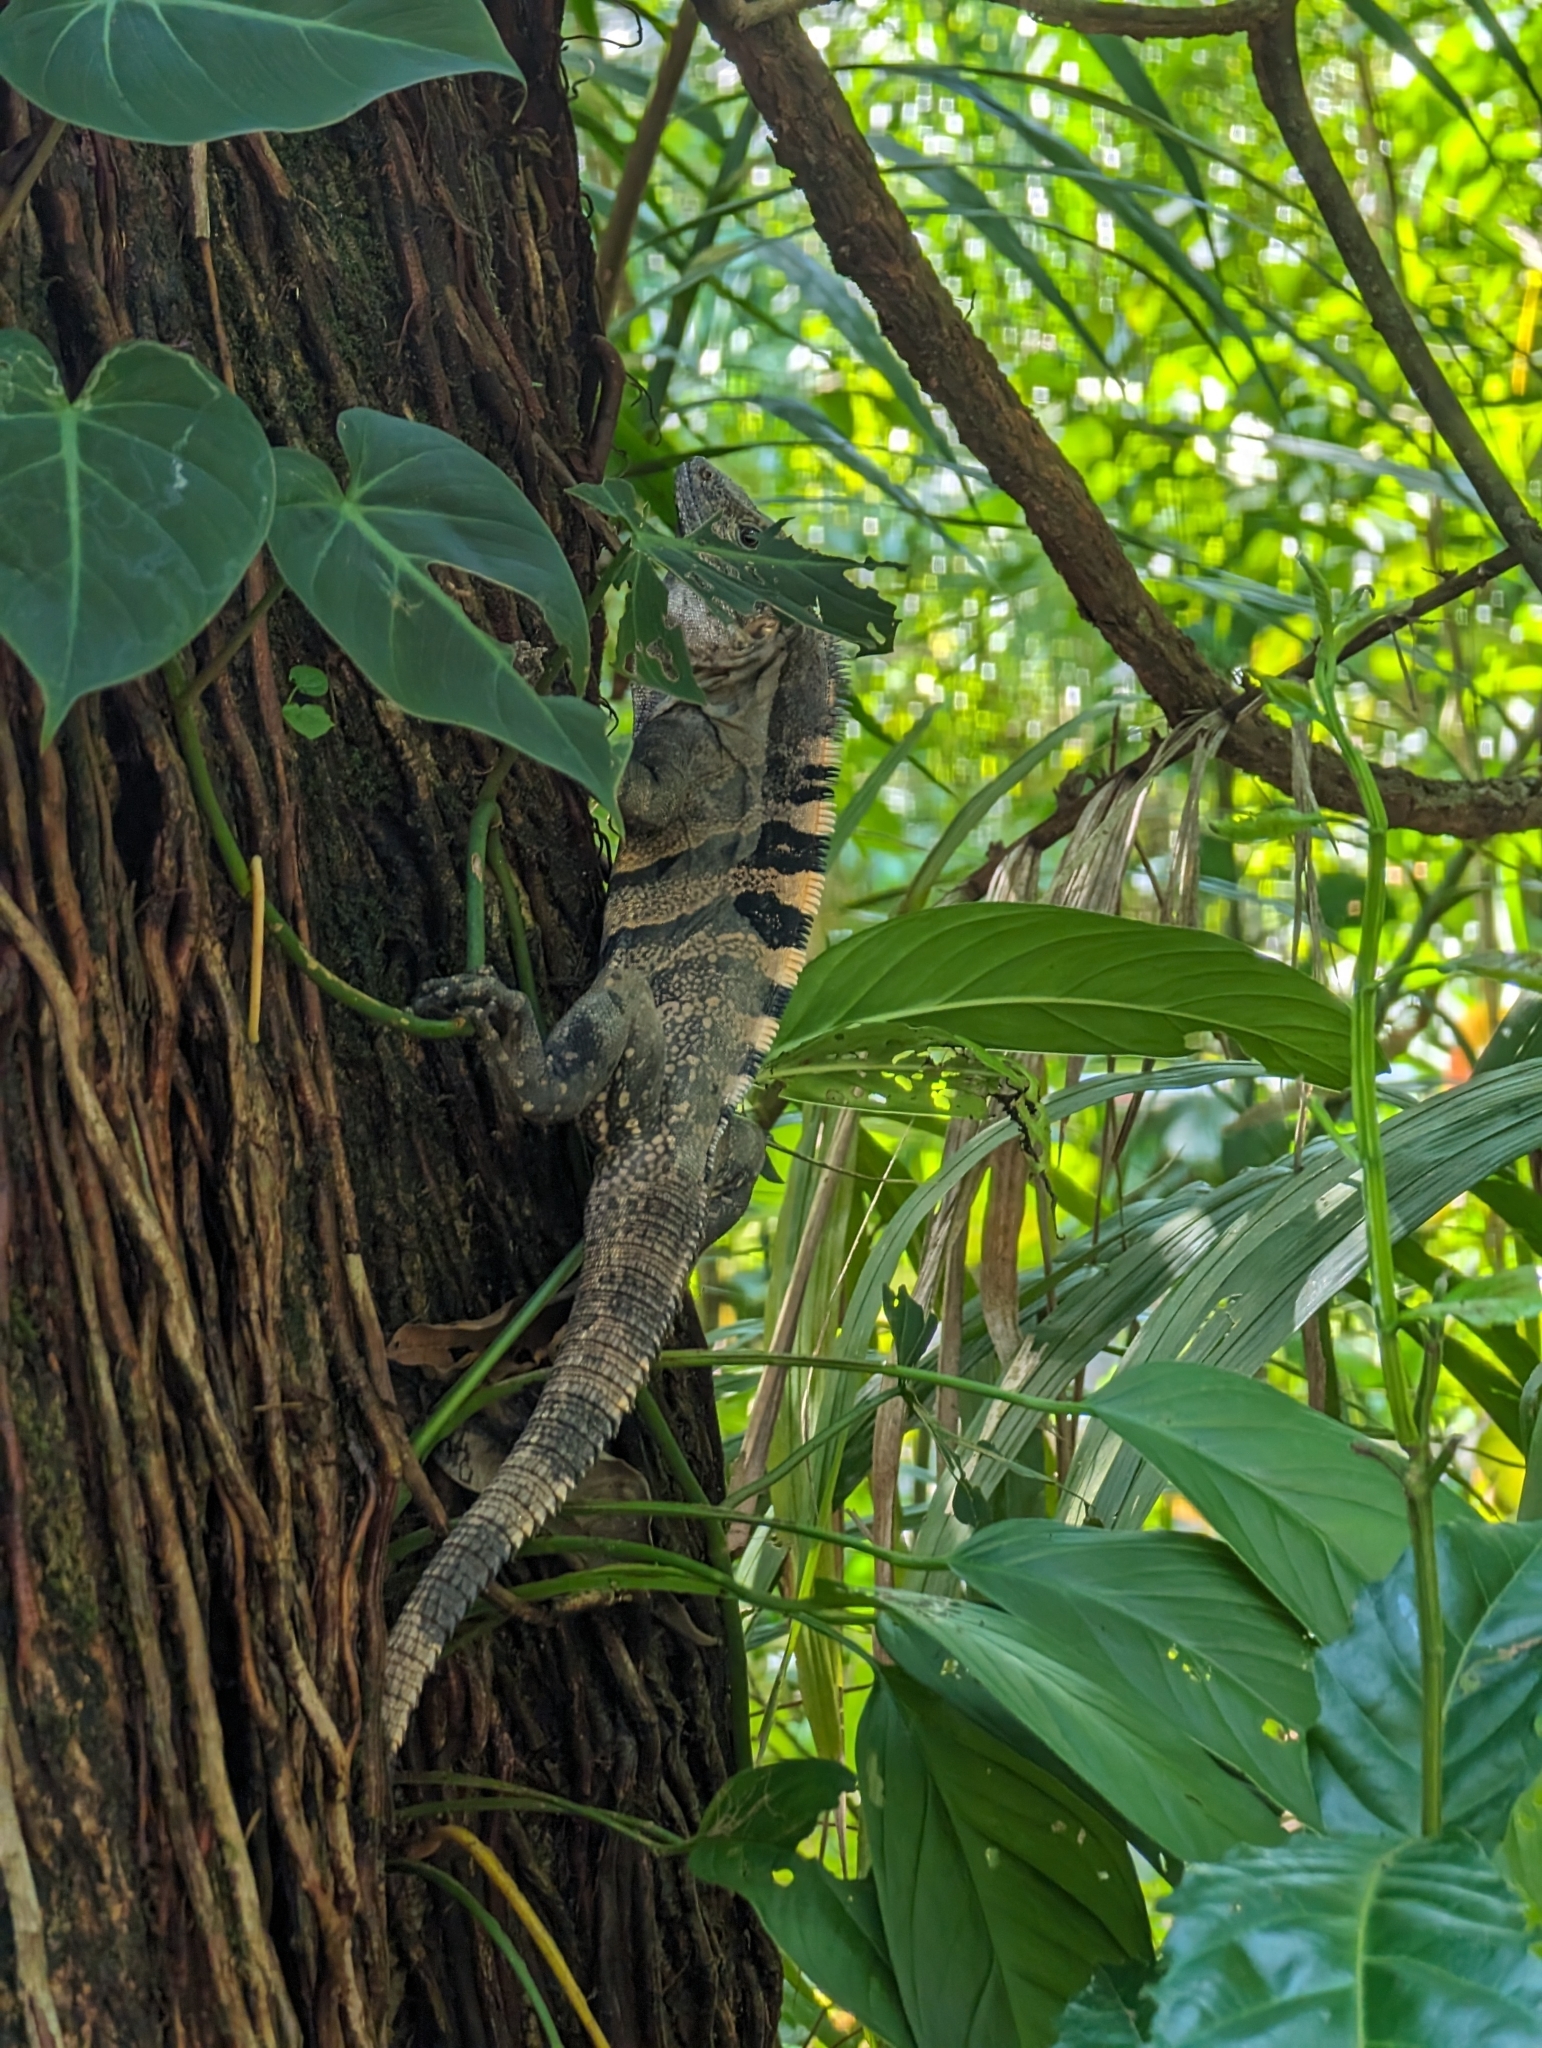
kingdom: Animalia
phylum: Chordata
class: Squamata
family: Iguanidae
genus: Ctenosaura
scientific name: Ctenosaura similis
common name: Black spiny-tailed iguana
